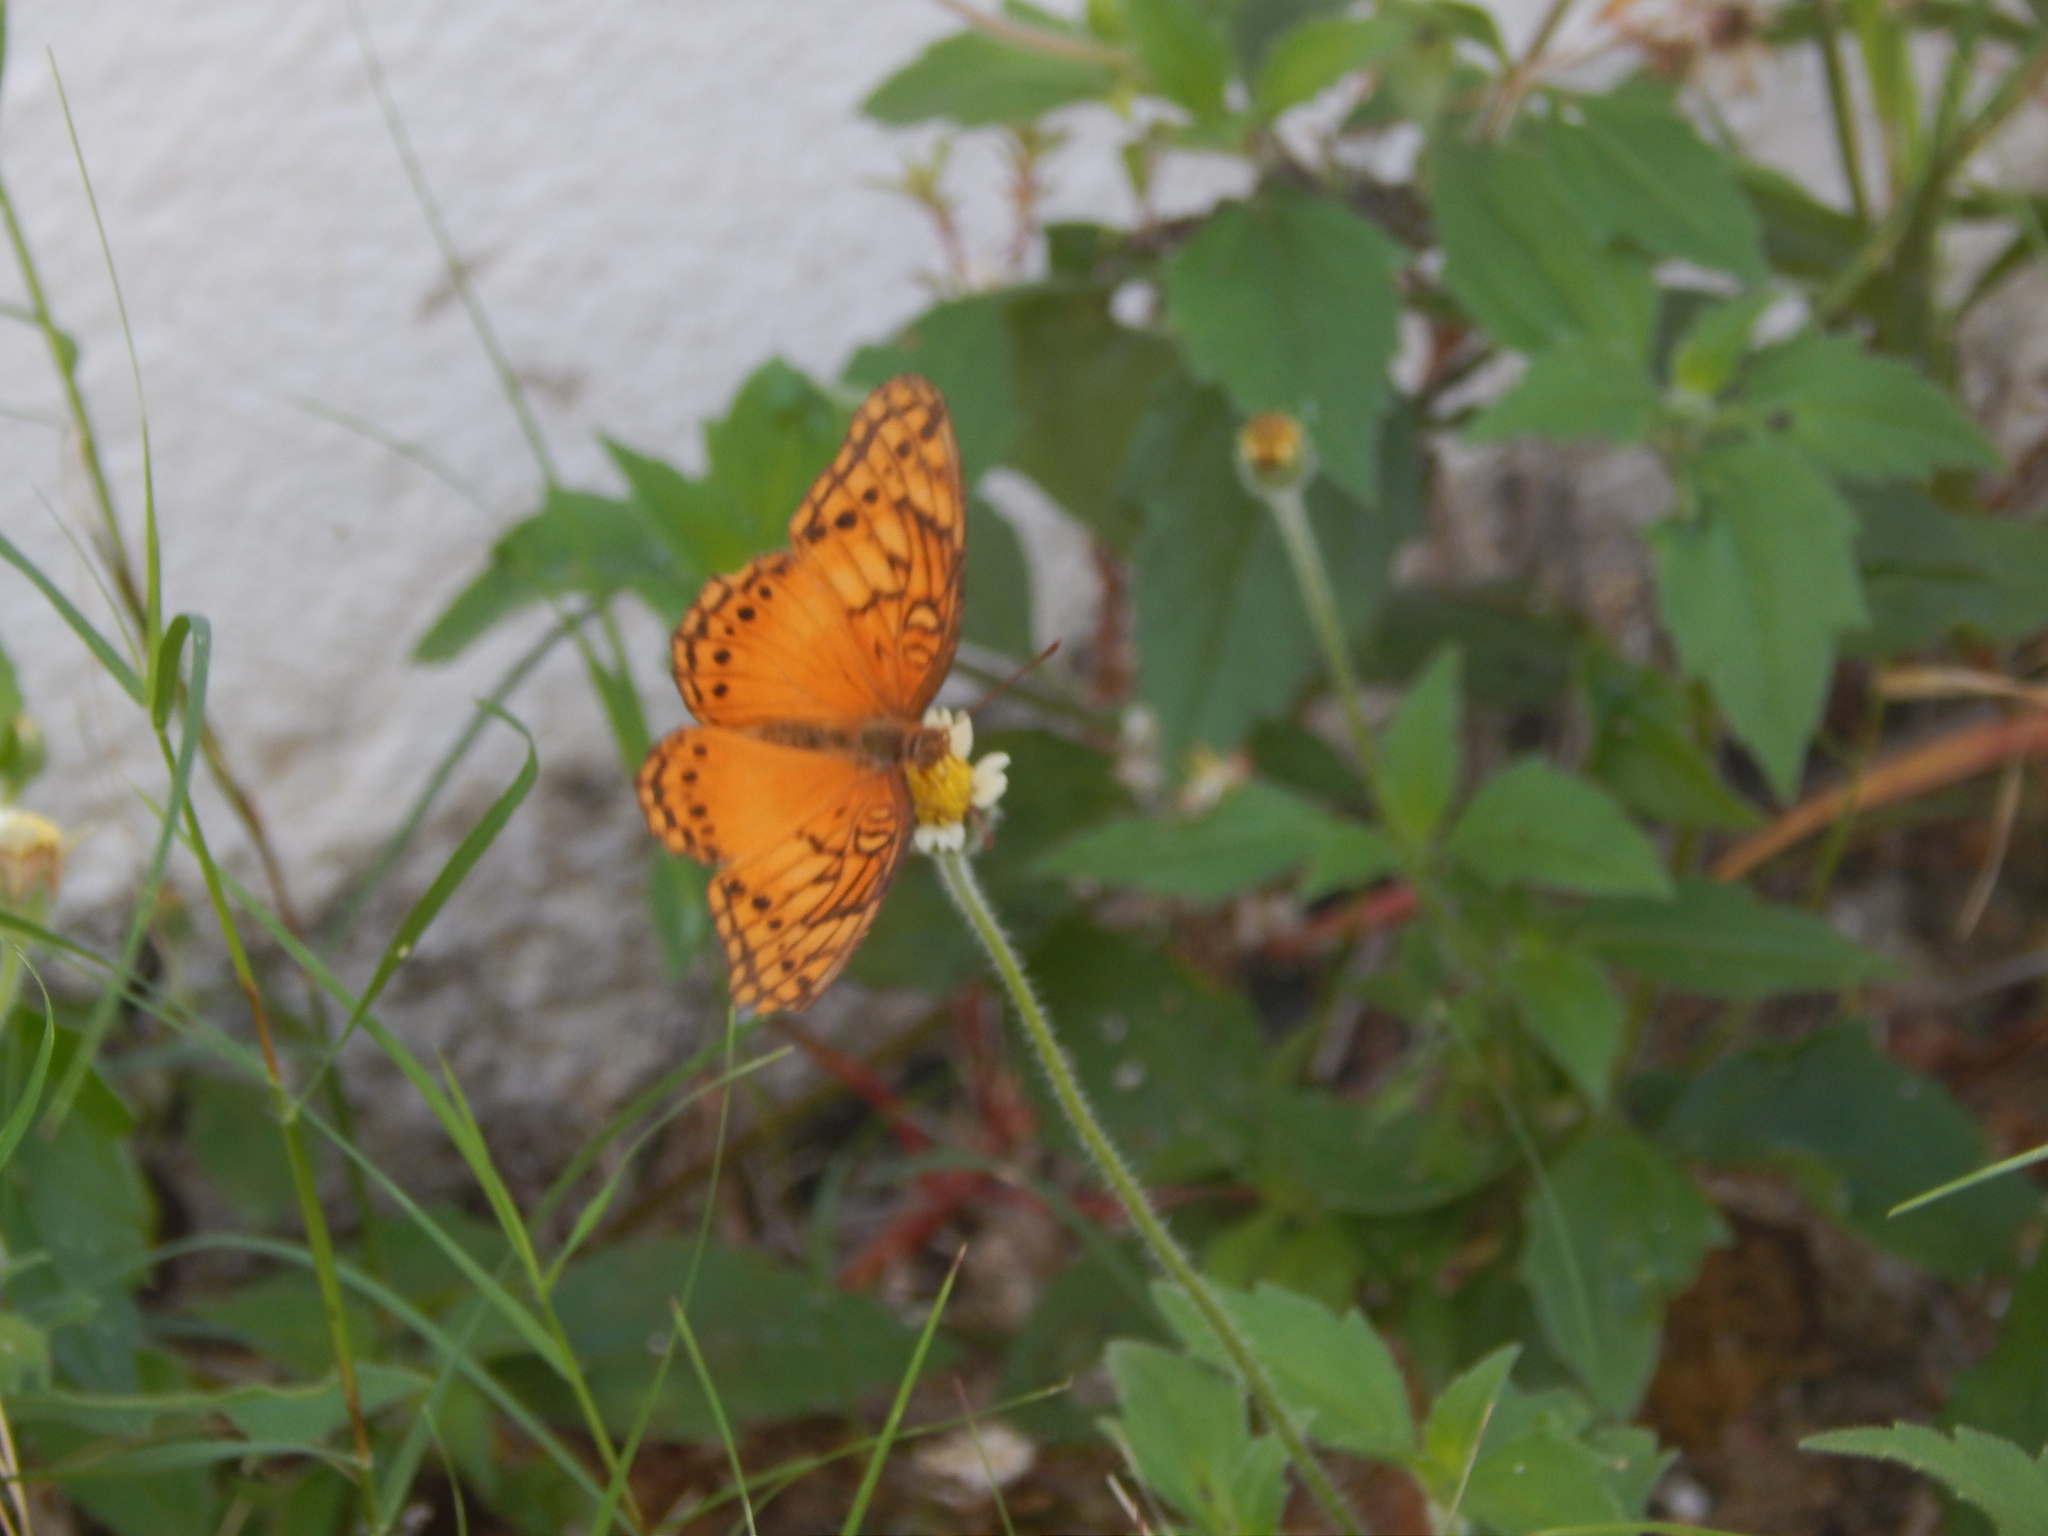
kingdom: Animalia
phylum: Arthropoda
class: Insecta
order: Lepidoptera
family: Nymphalidae
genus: Euptoieta
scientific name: Euptoieta hegesia
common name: Mexican fritillary
